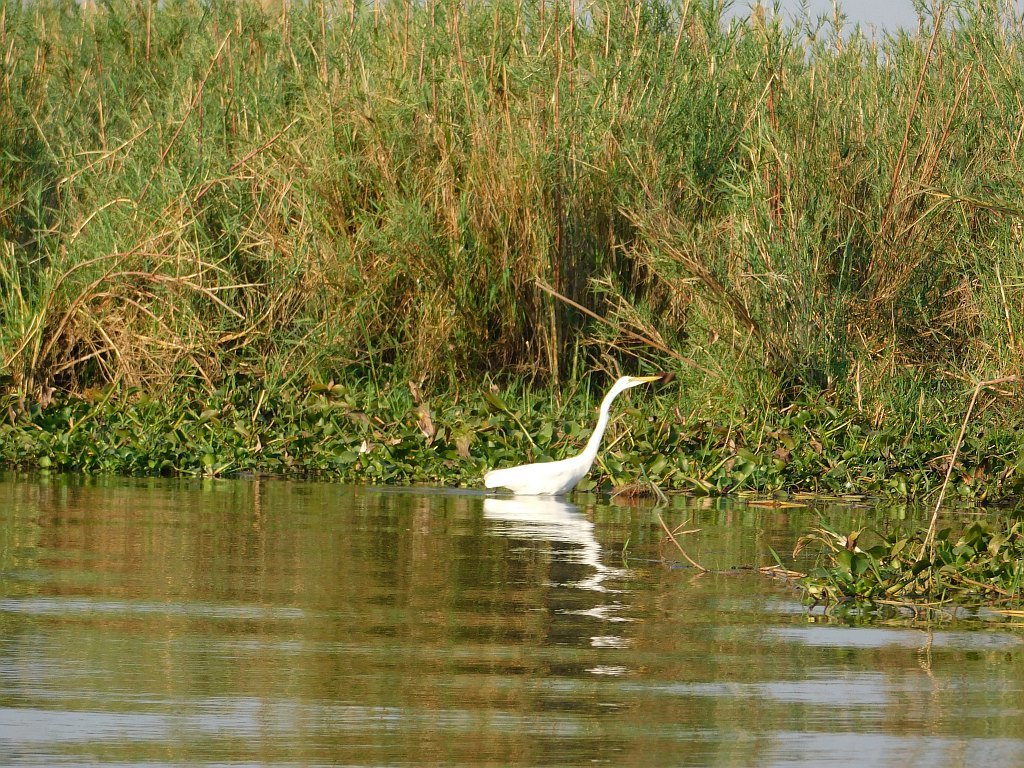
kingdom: Animalia
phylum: Chordata
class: Aves
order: Pelecaniformes
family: Ardeidae
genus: Ardea
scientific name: Ardea alba
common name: Great egret
